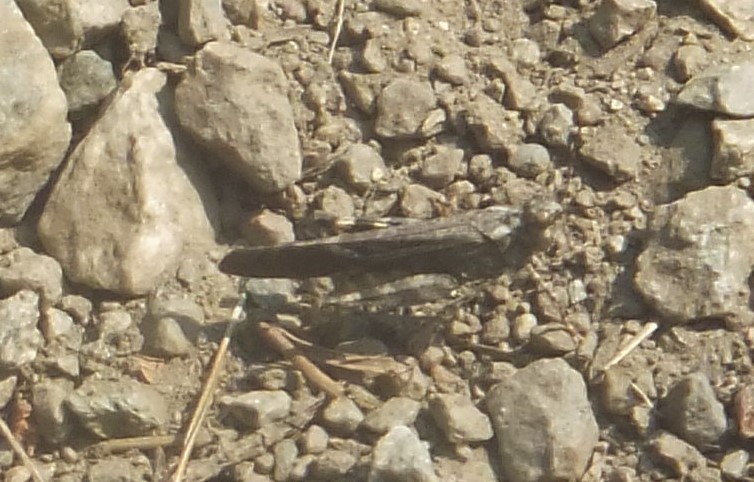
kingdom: Animalia
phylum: Arthropoda
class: Insecta
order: Orthoptera
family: Acrididae
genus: Trimerotropis
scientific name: Trimerotropis verruculata
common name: Crackling forest grasshopper
